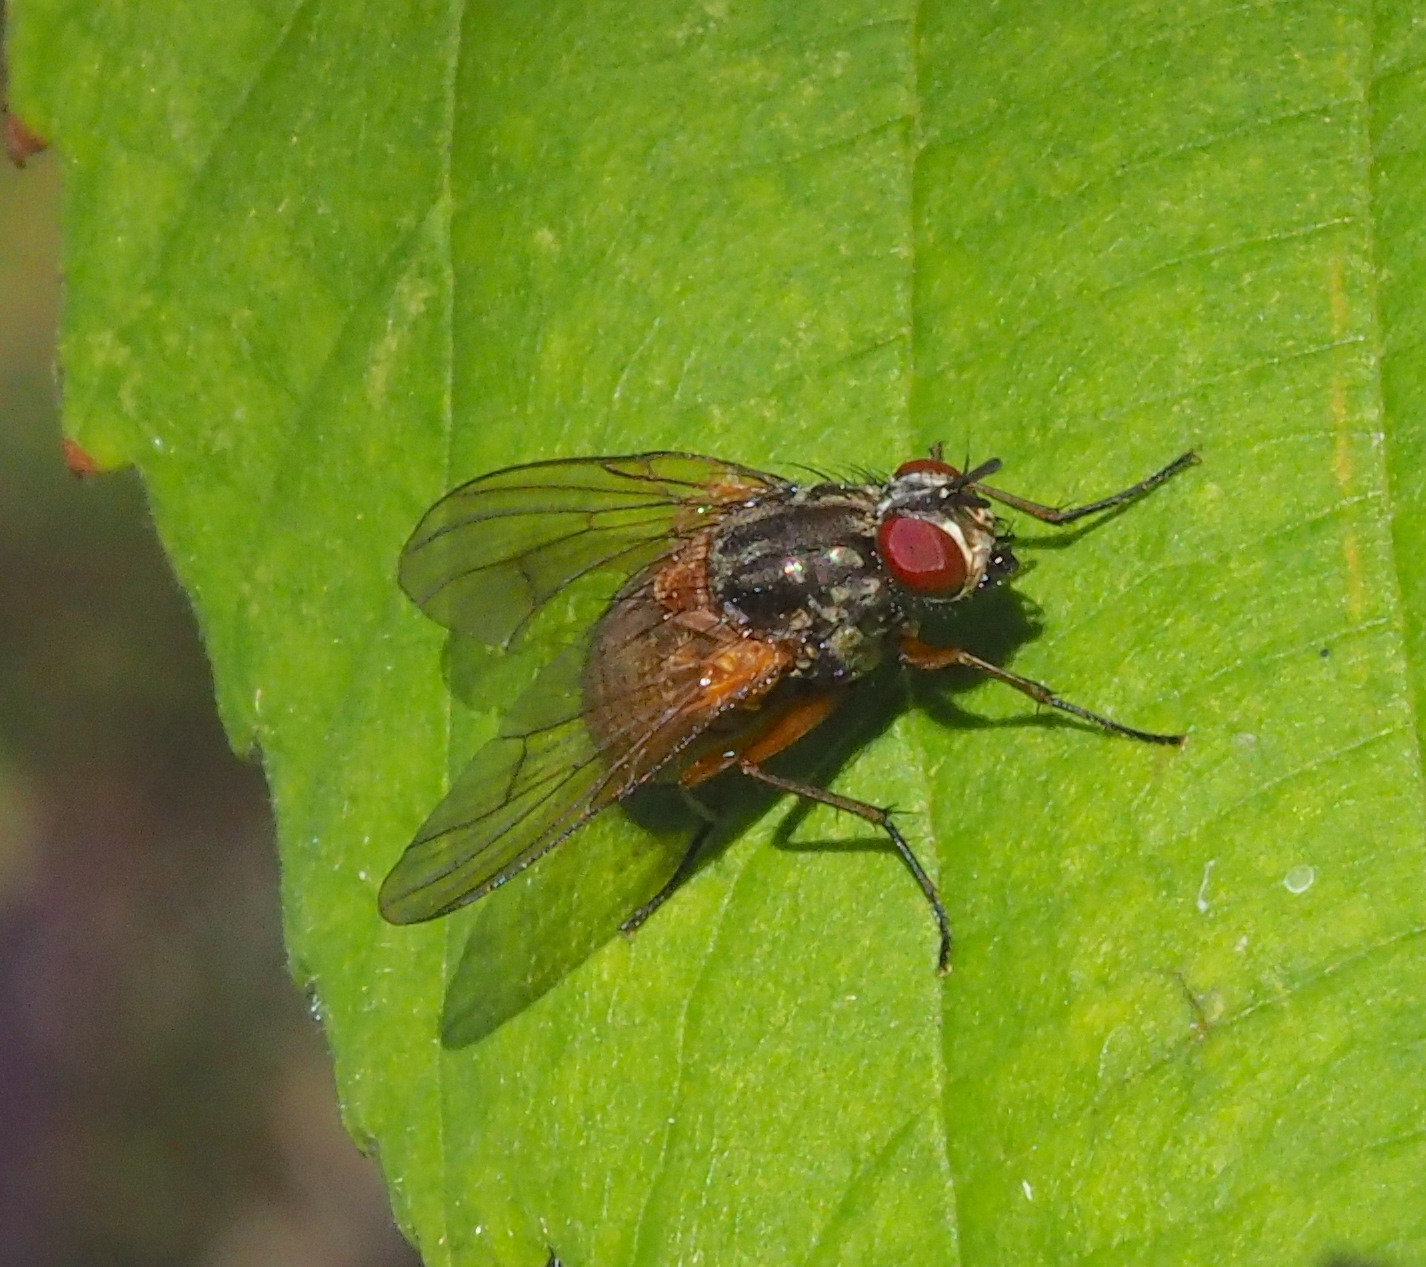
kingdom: Animalia
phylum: Arthropoda
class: Insecta
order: Diptera
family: Muscidae
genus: Phaonia
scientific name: Phaonia subventa
